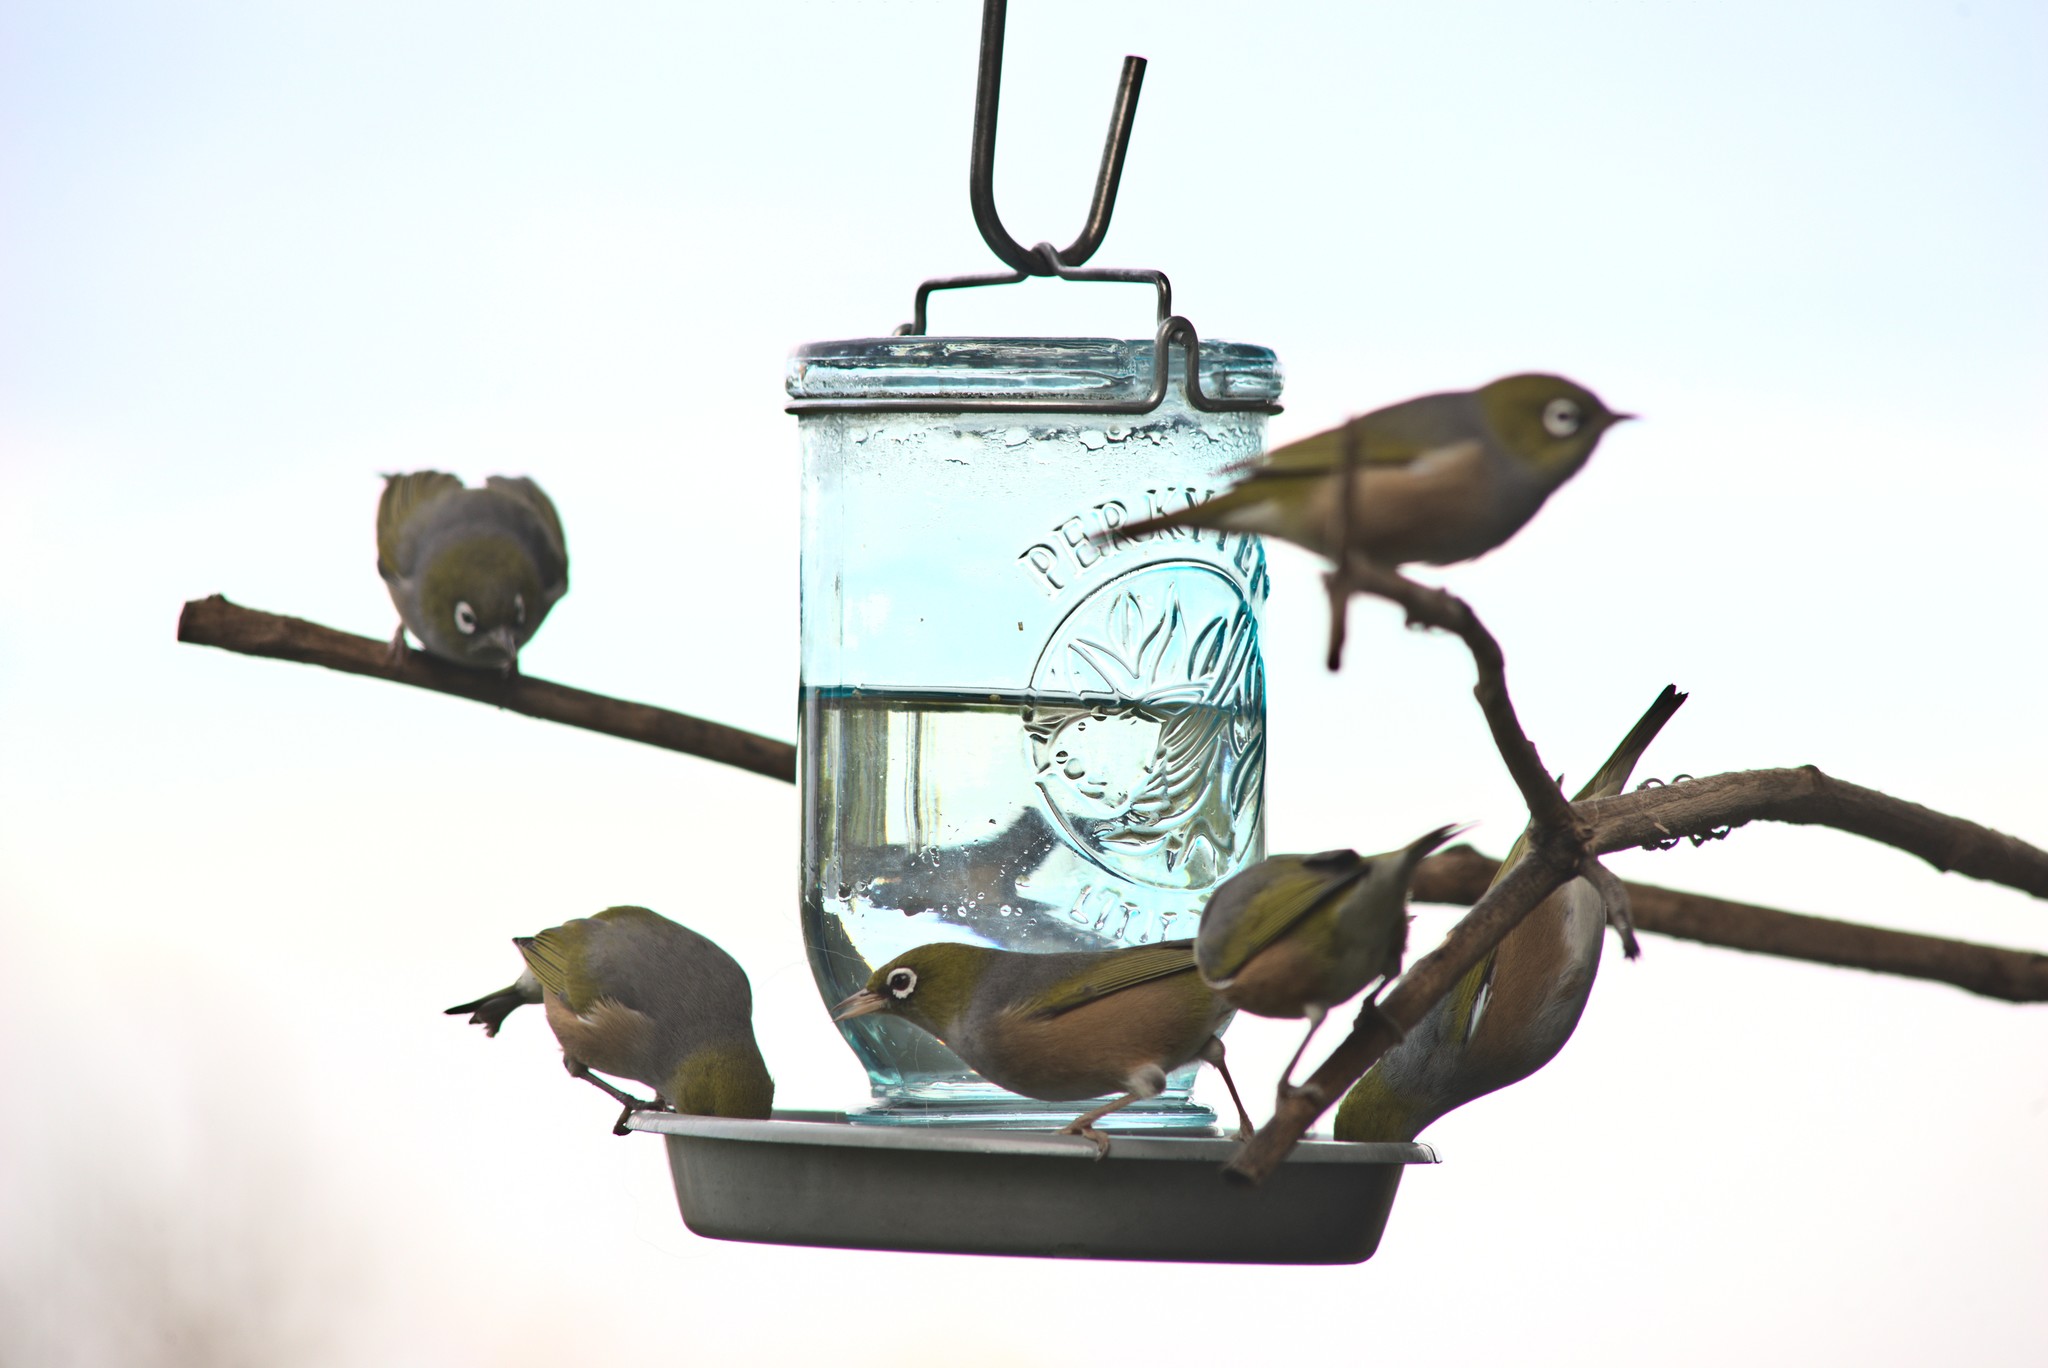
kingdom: Animalia
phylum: Chordata
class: Aves
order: Passeriformes
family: Zosteropidae
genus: Zosterops
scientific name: Zosterops lateralis
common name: Silvereye
